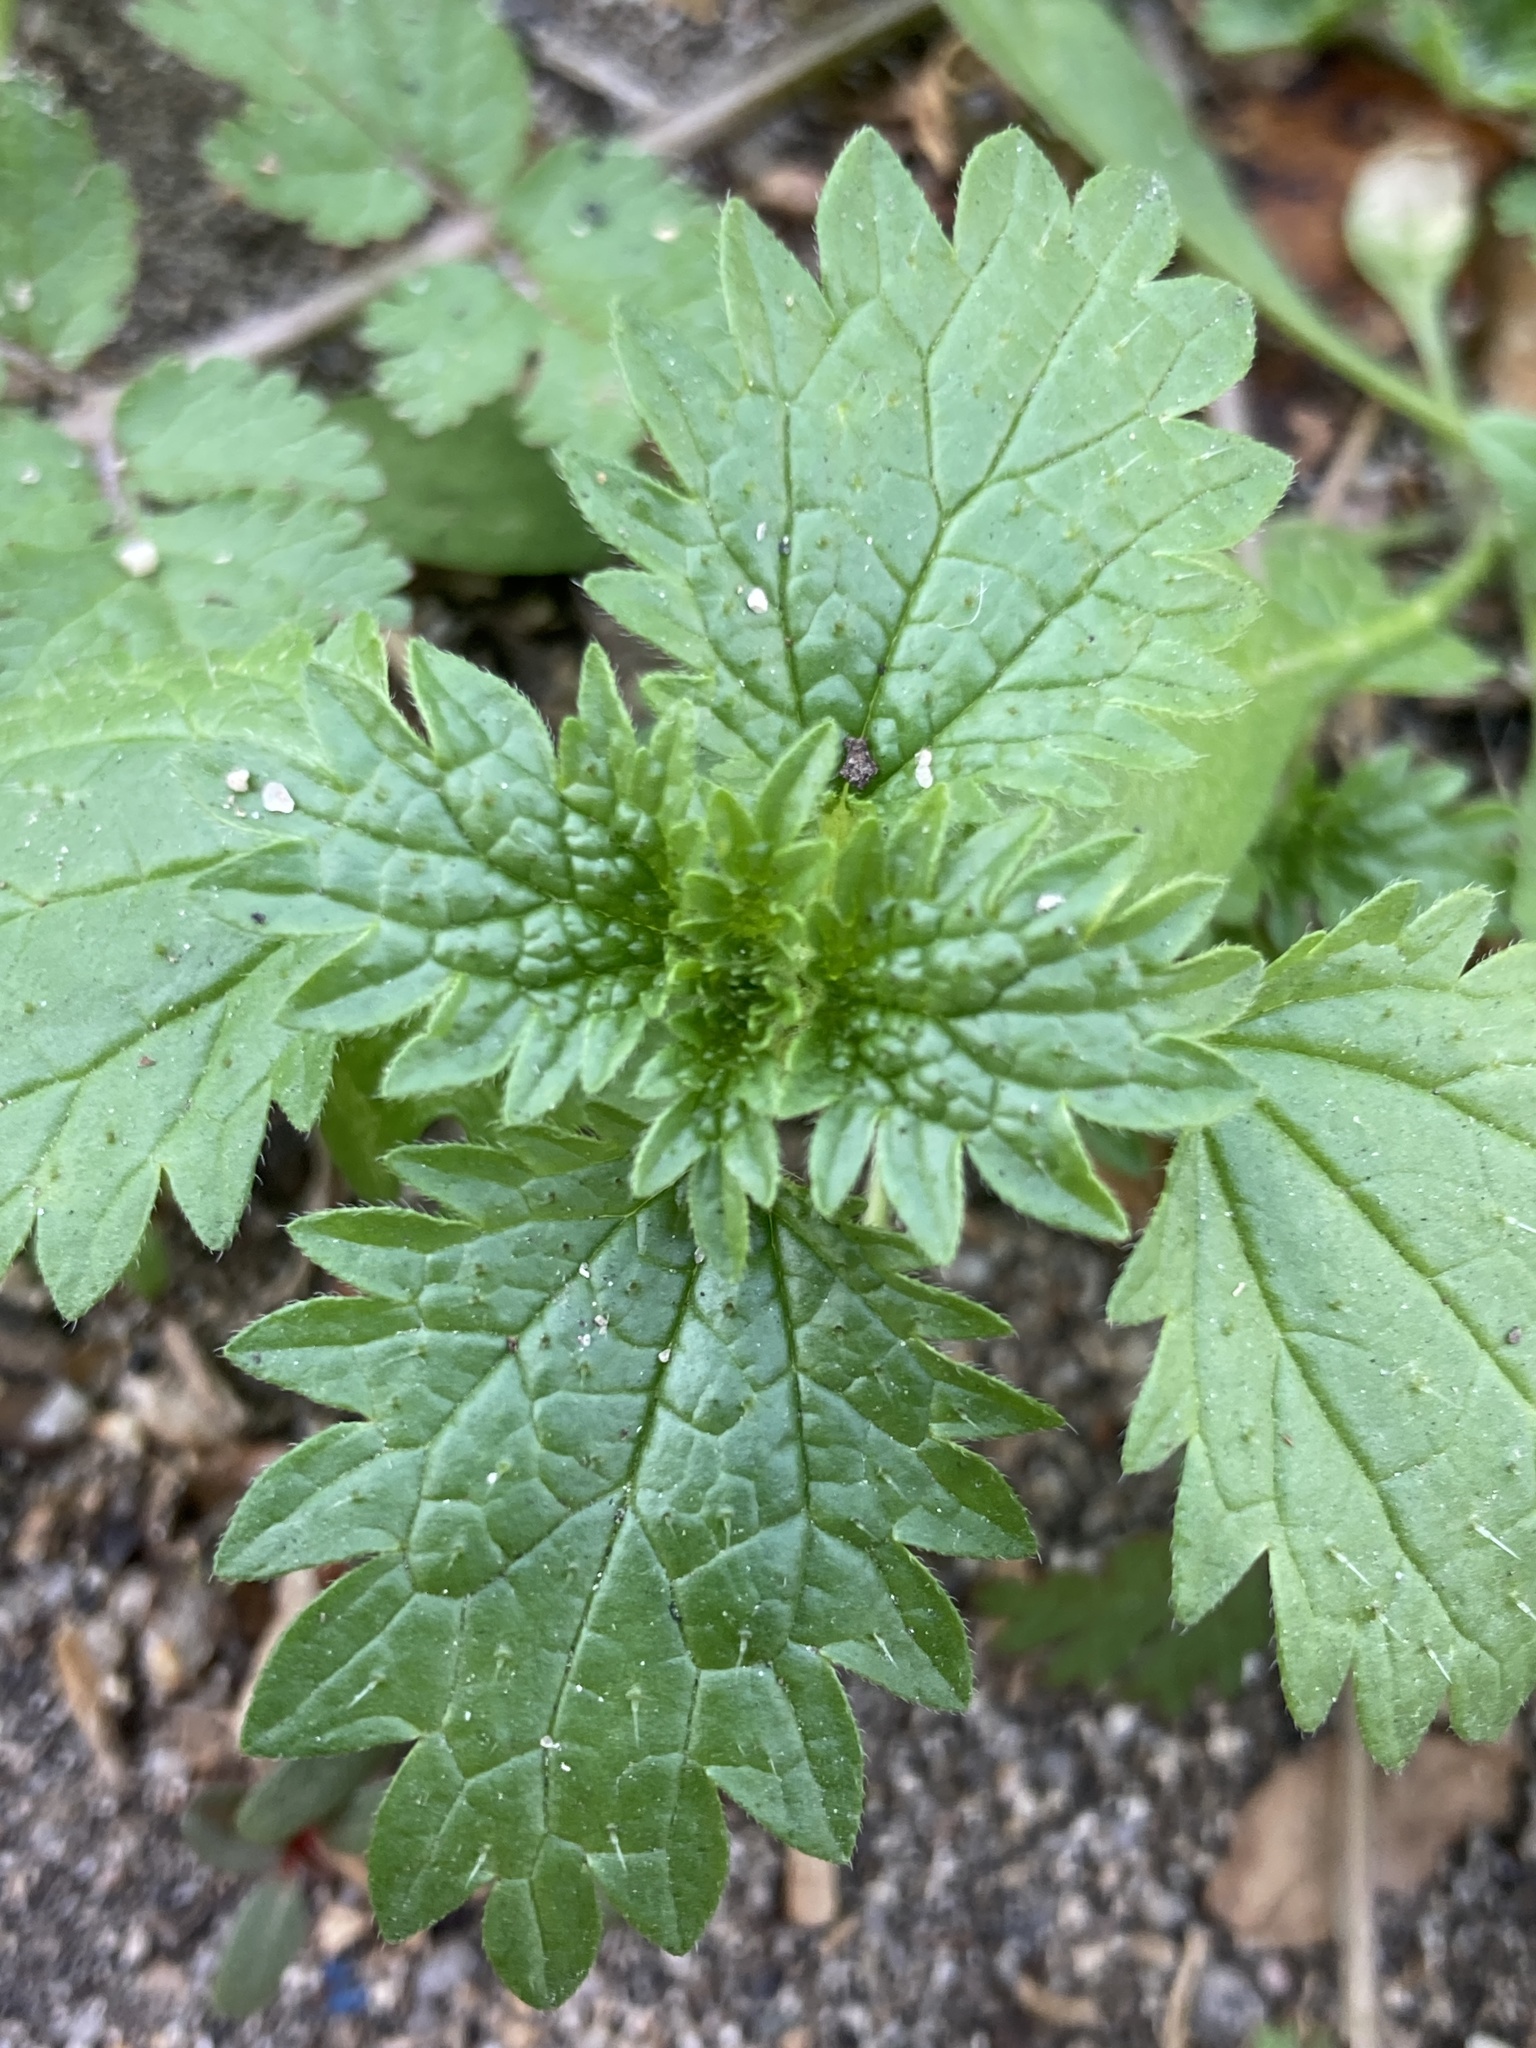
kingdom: Plantae
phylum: Tracheophyta
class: Magnoliopsida
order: Rosales
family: Urticaceae
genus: Urtica
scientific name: Urtica urens
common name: Dwarf nettle
